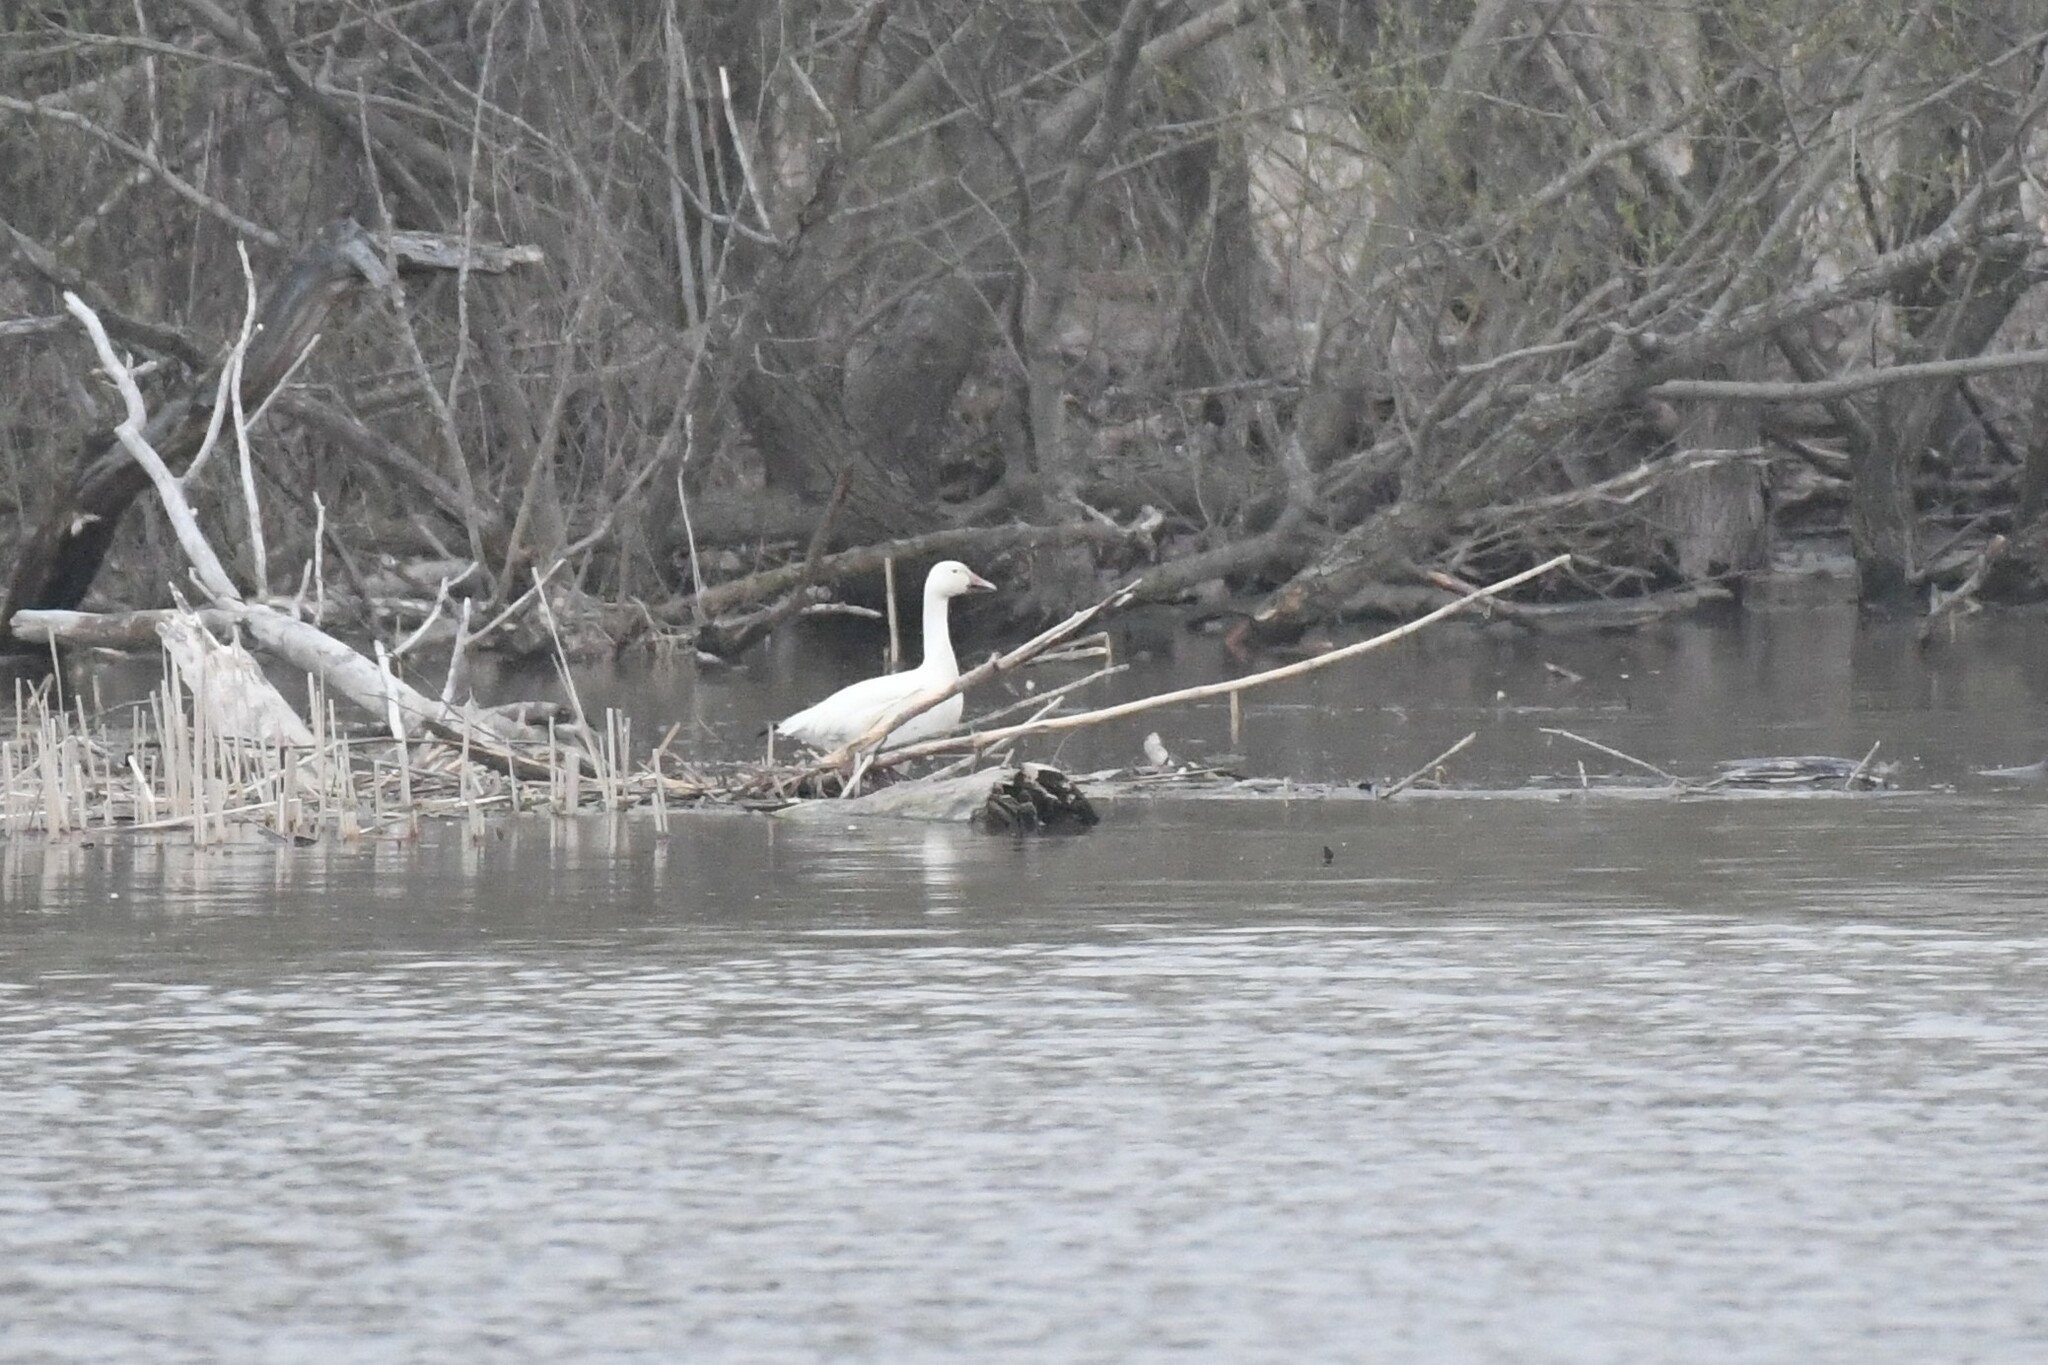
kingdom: Animalia
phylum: Chordata
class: Aves
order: Anseriformes
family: Anatidae
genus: Anser
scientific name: Anser caerulescens
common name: Snow goose
